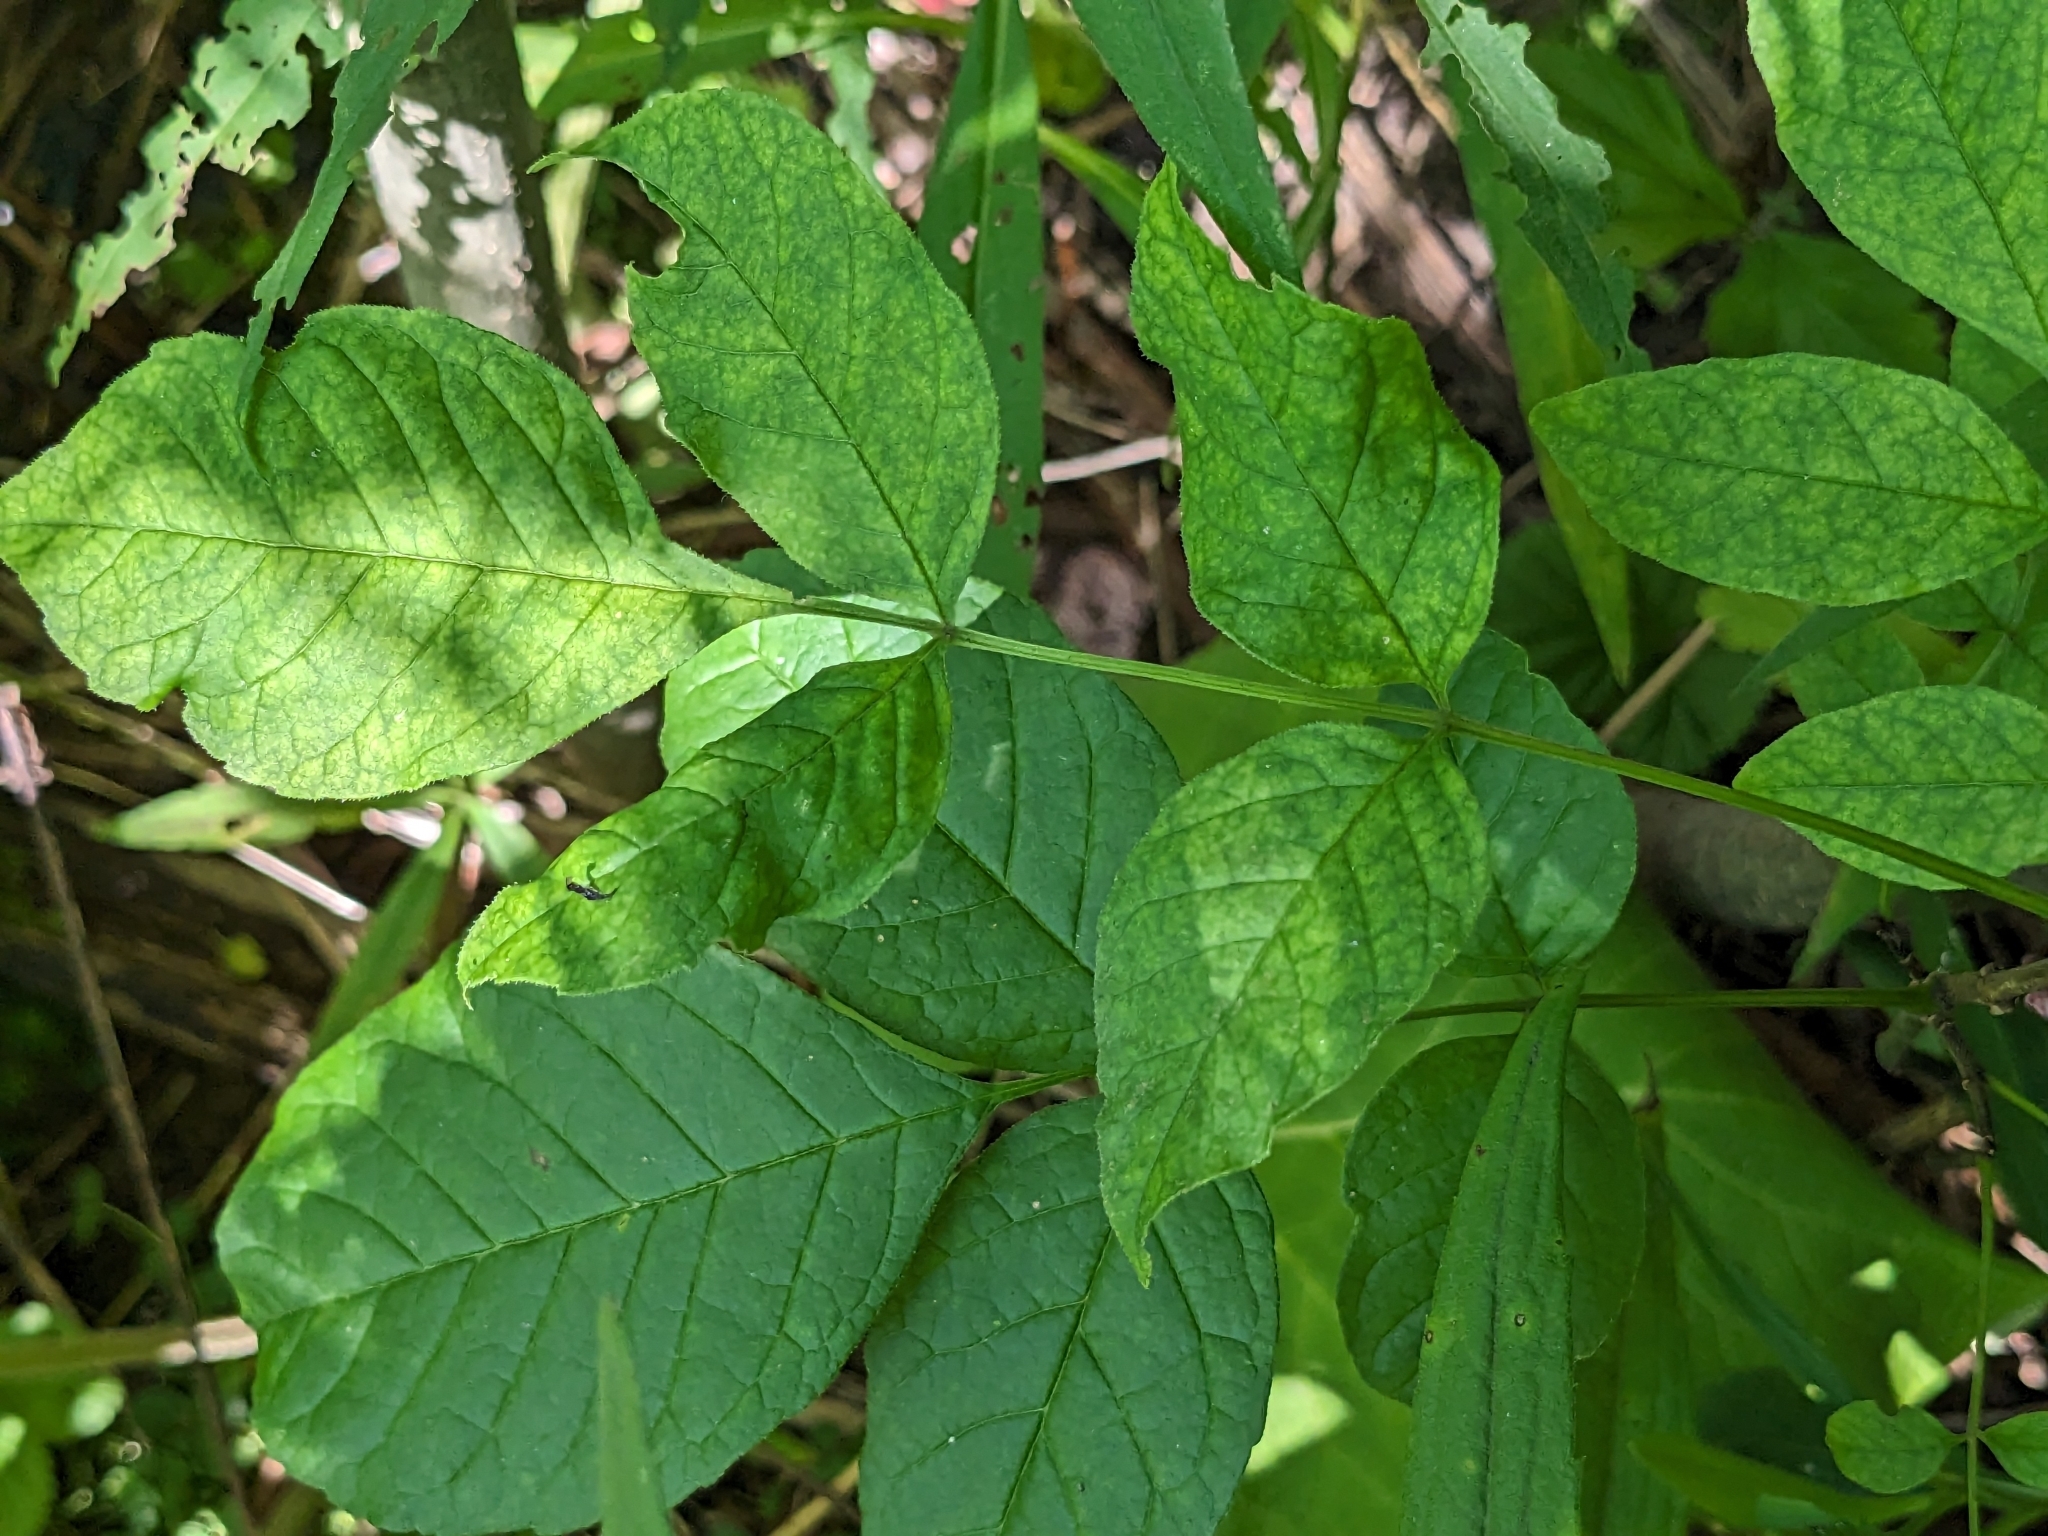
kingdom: Plantae
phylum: Tracheophyta
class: Magnoliopsida
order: Lamiales
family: Oleaceae
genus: Fraxinus
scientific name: Fraxinus americana
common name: White ash
